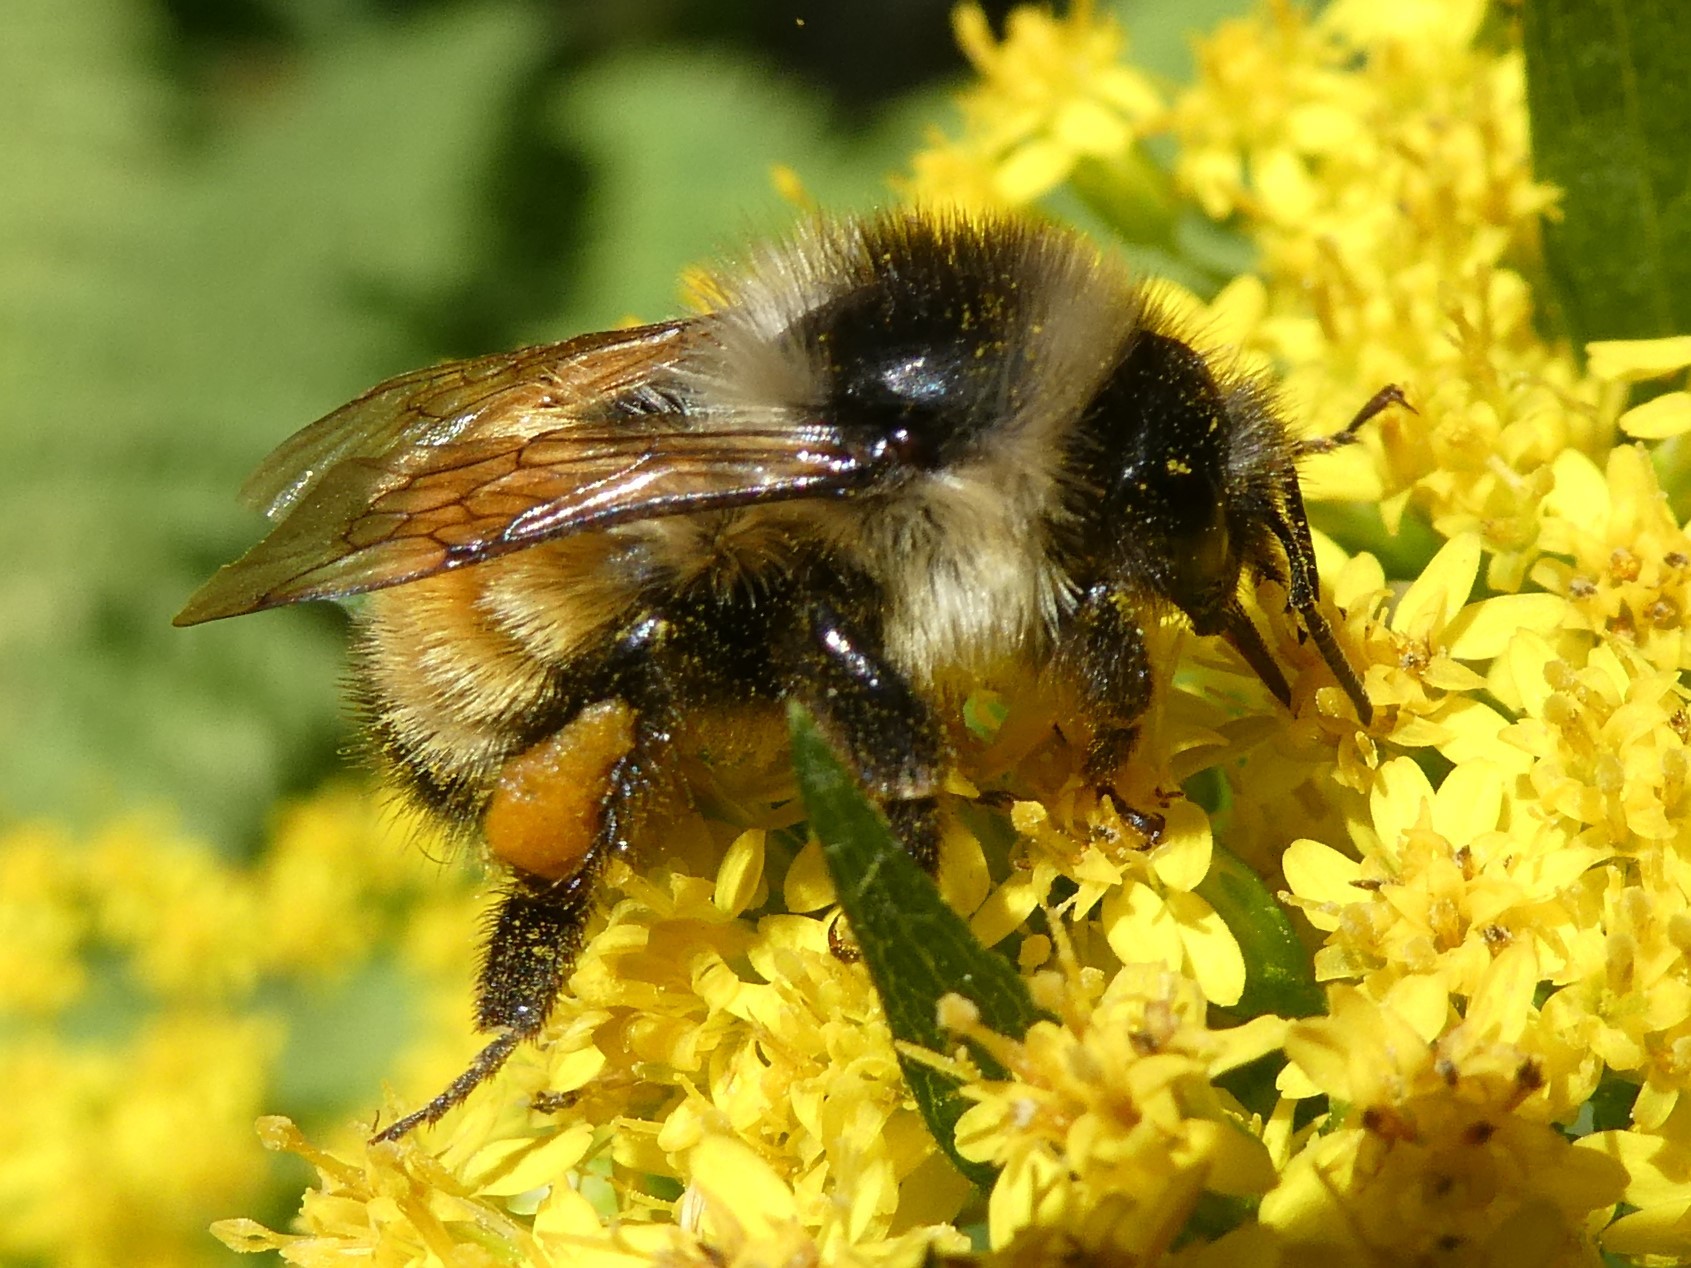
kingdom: Animalia
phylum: Arthropoda
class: Insecta
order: Hymenoptera
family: Apidae
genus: Bombus
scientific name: Bombus ternarius
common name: Tri-colored bumble bee
